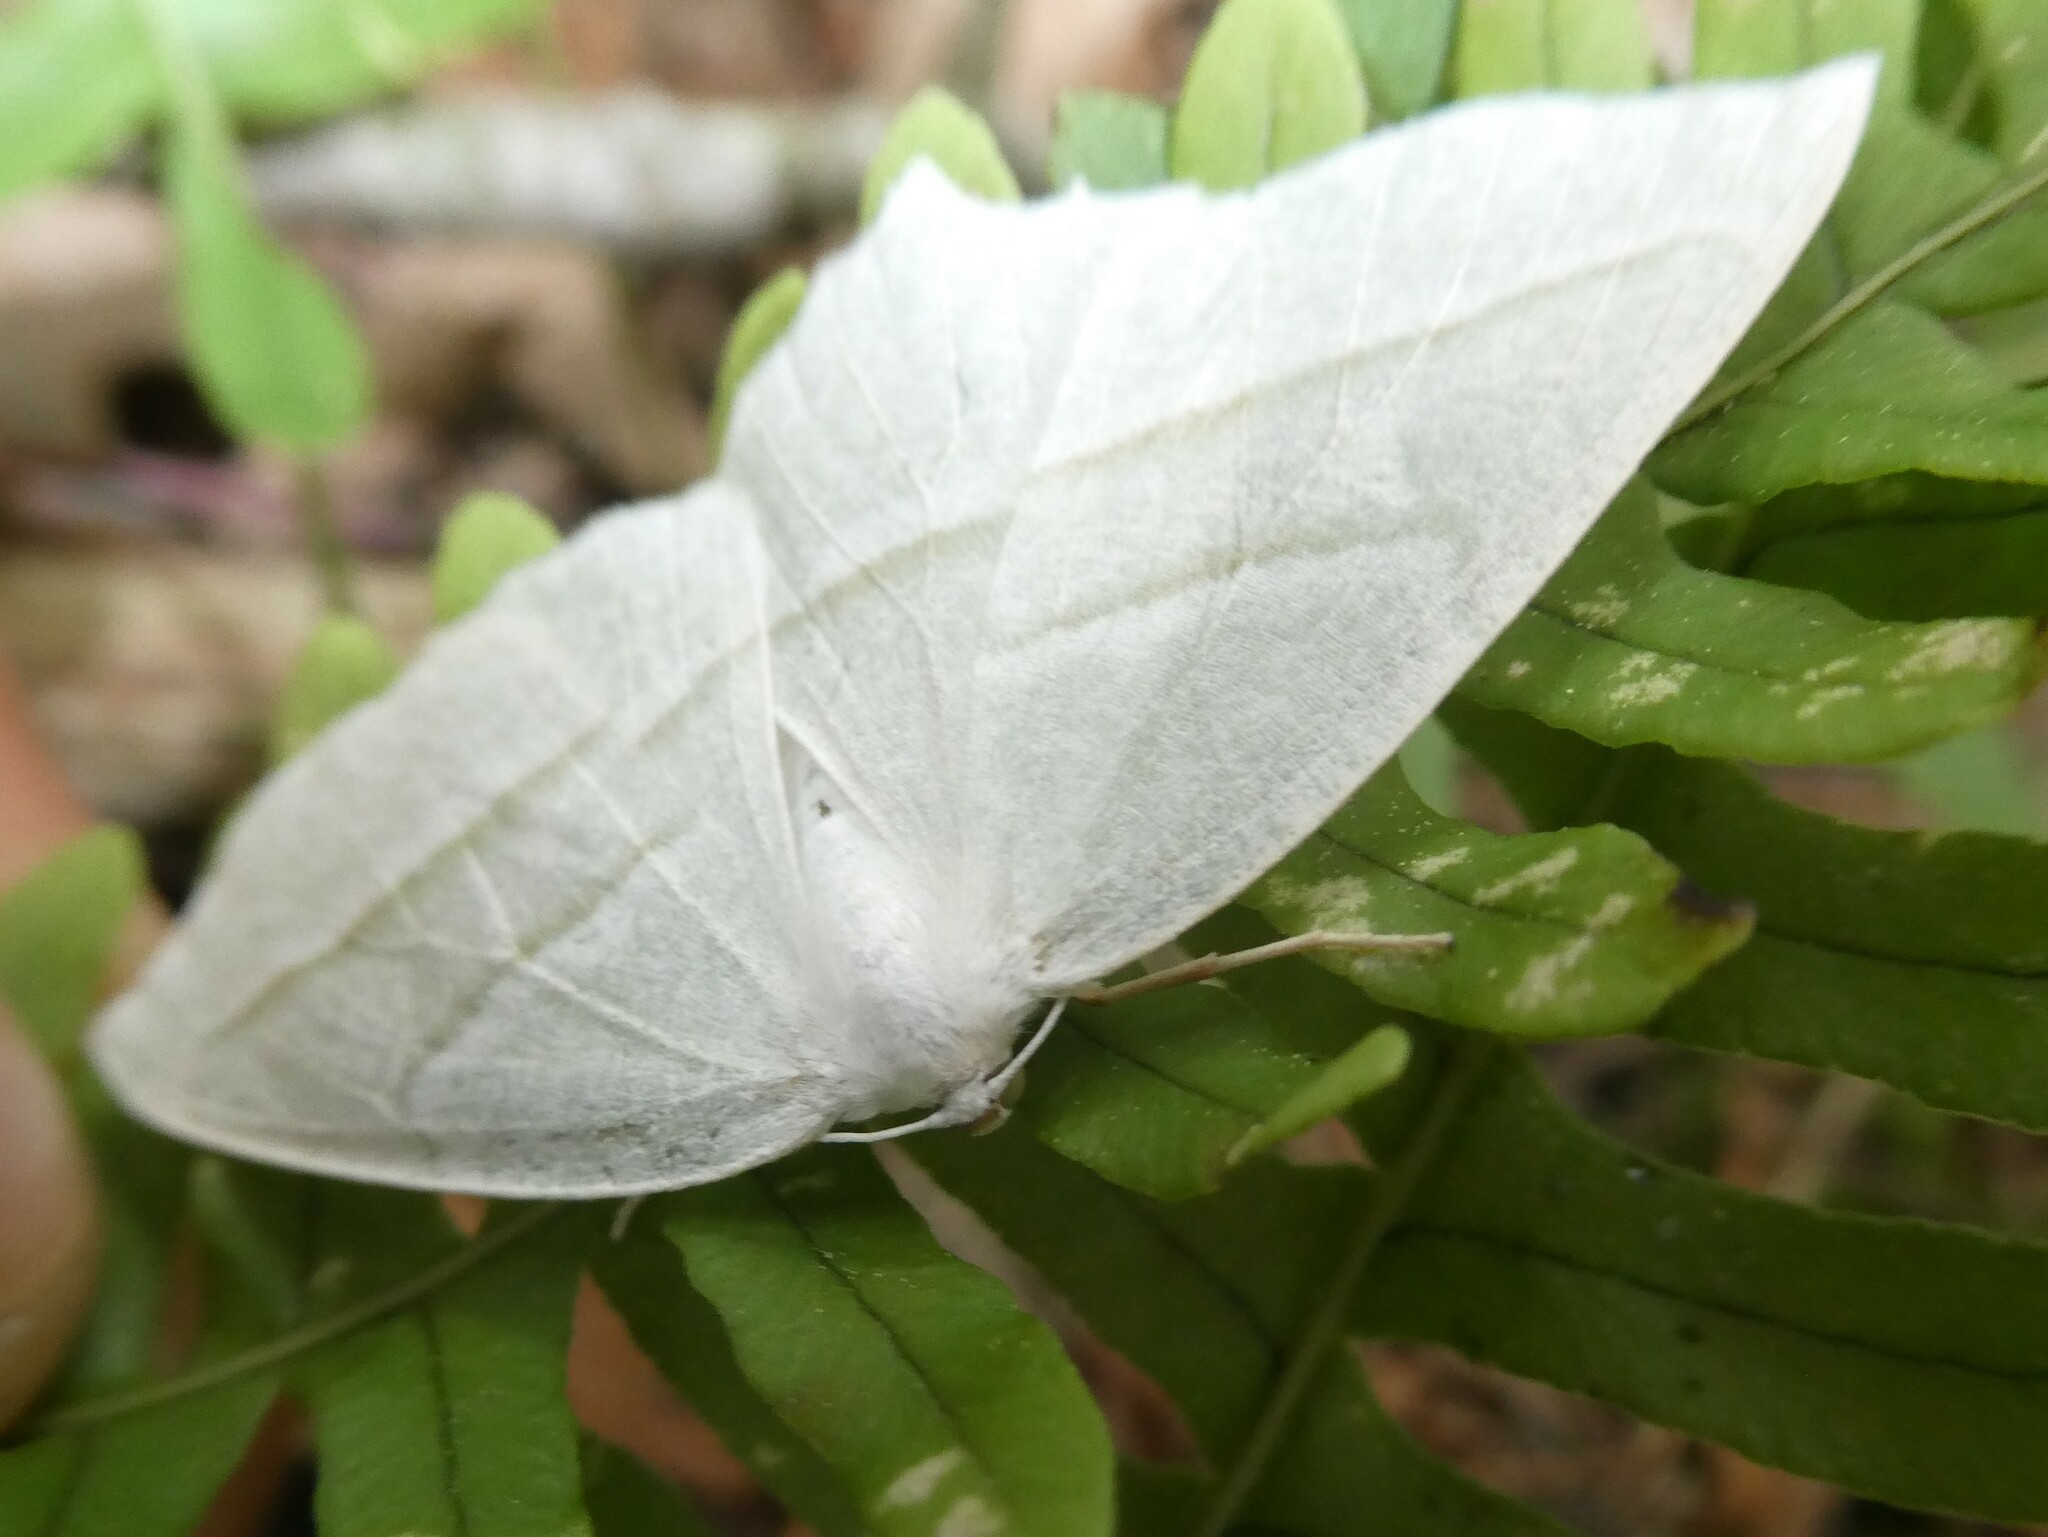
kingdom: Animalia
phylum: Arthropoda
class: Insecta
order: Lepidoptera
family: Geometridae
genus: Campaea
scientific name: Campaea perlata
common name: Fringed looper
